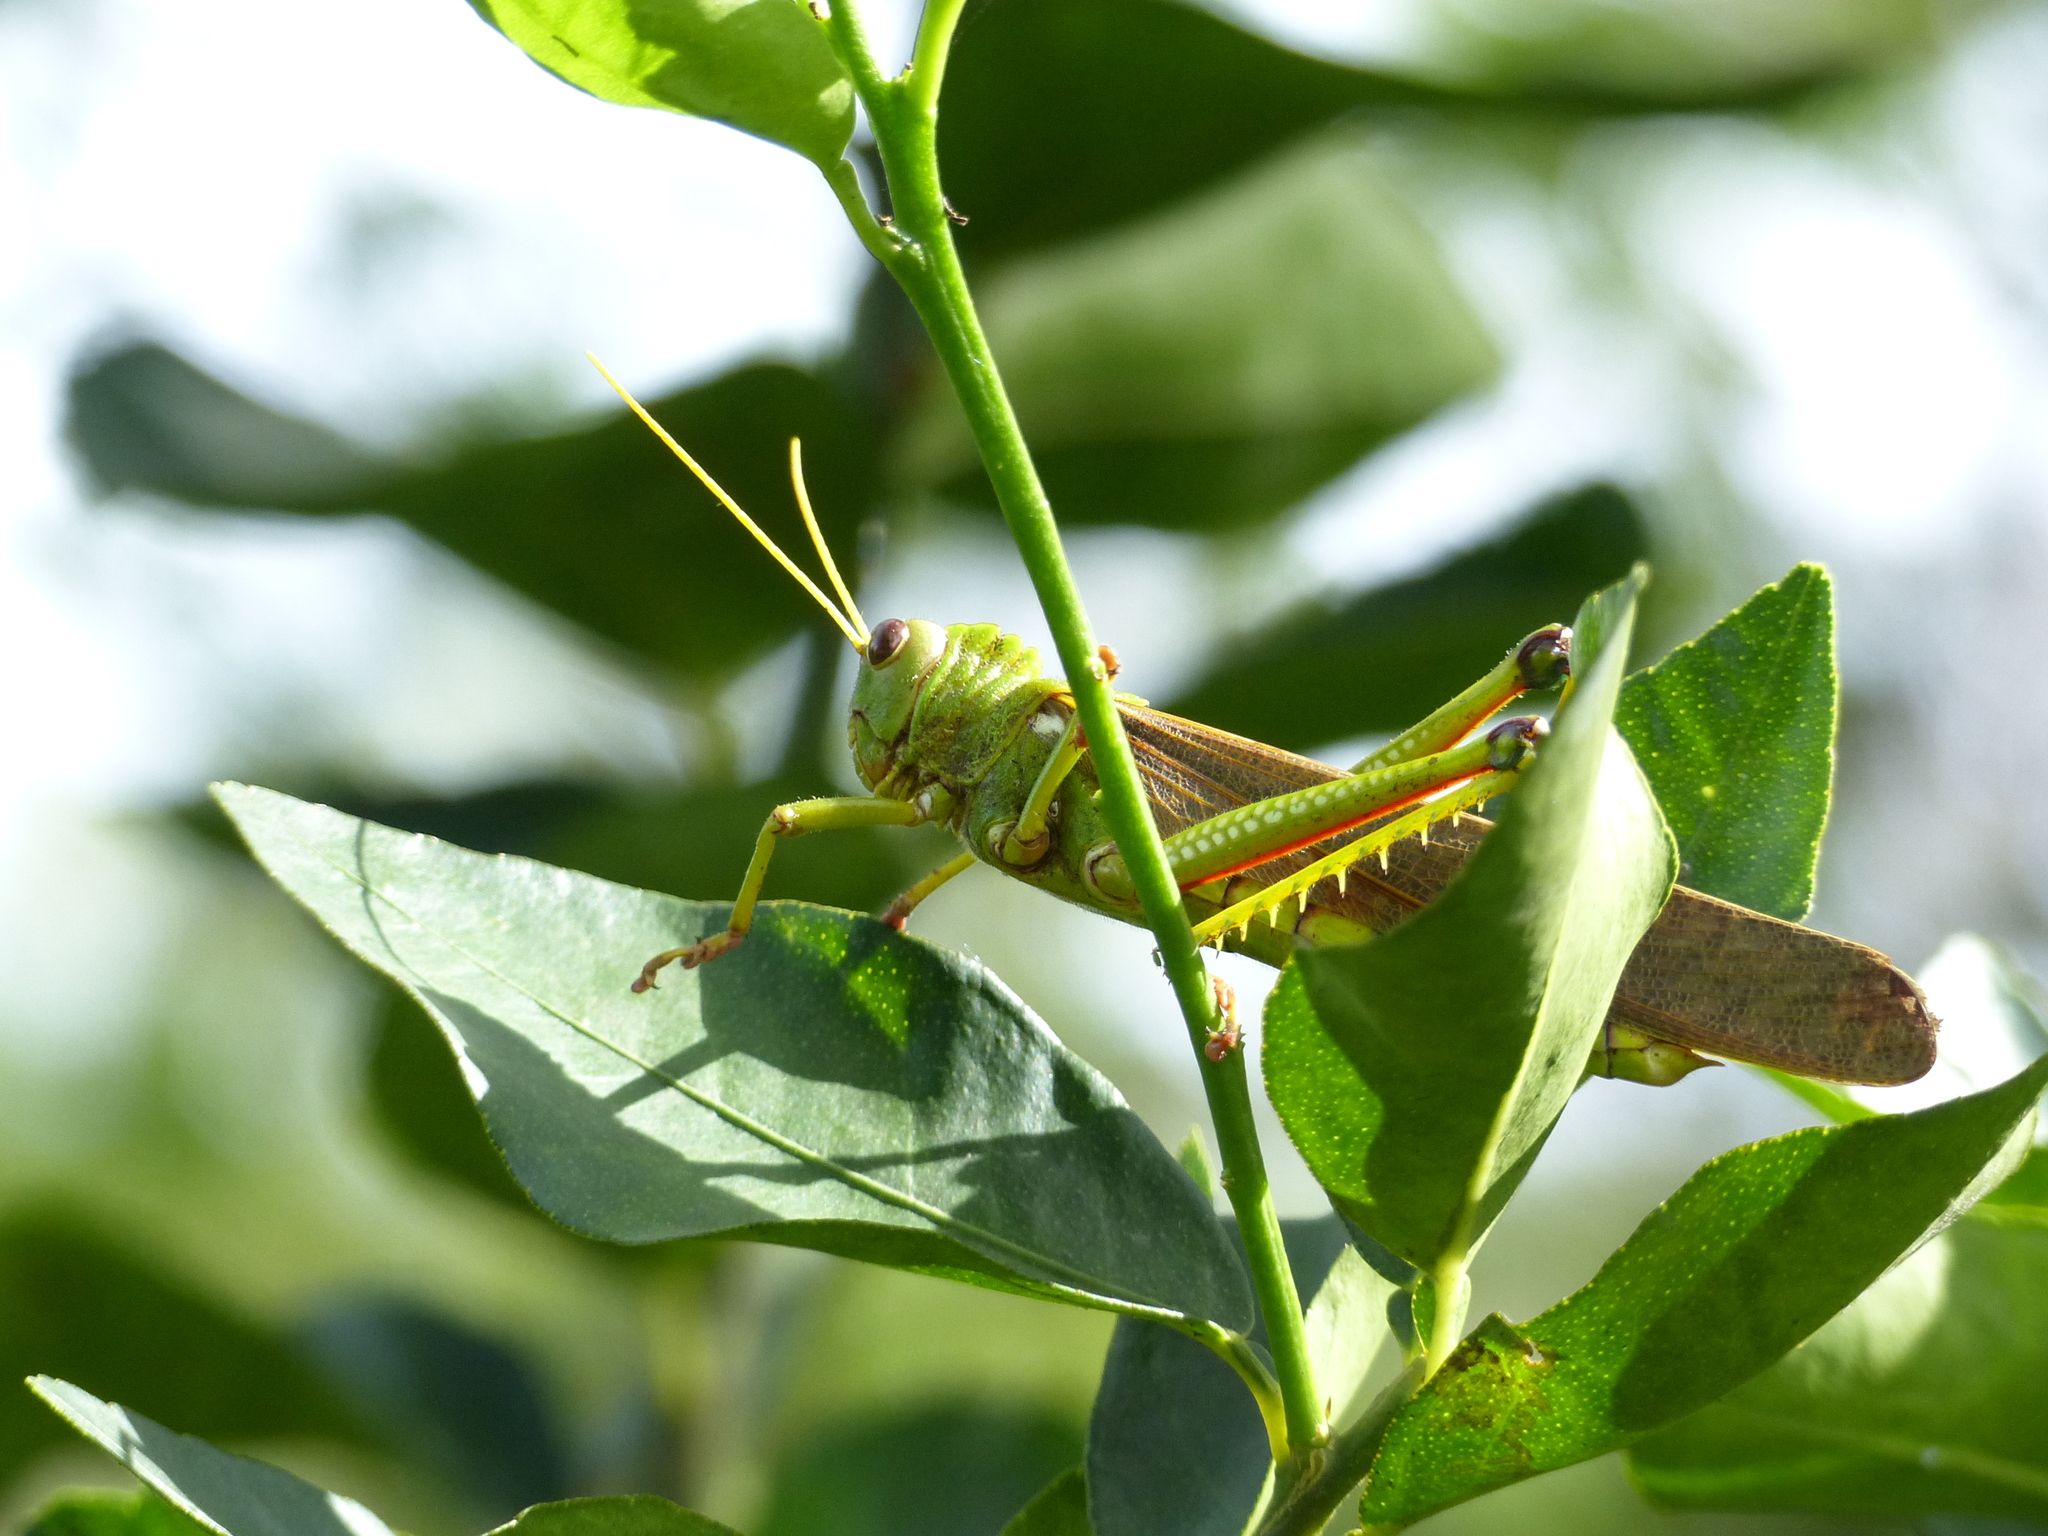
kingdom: Animalia
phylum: Arthropoda
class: Insecta
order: Orthoptera
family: Romaleidae
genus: Tropidacris
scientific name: Tropidacris collaris
